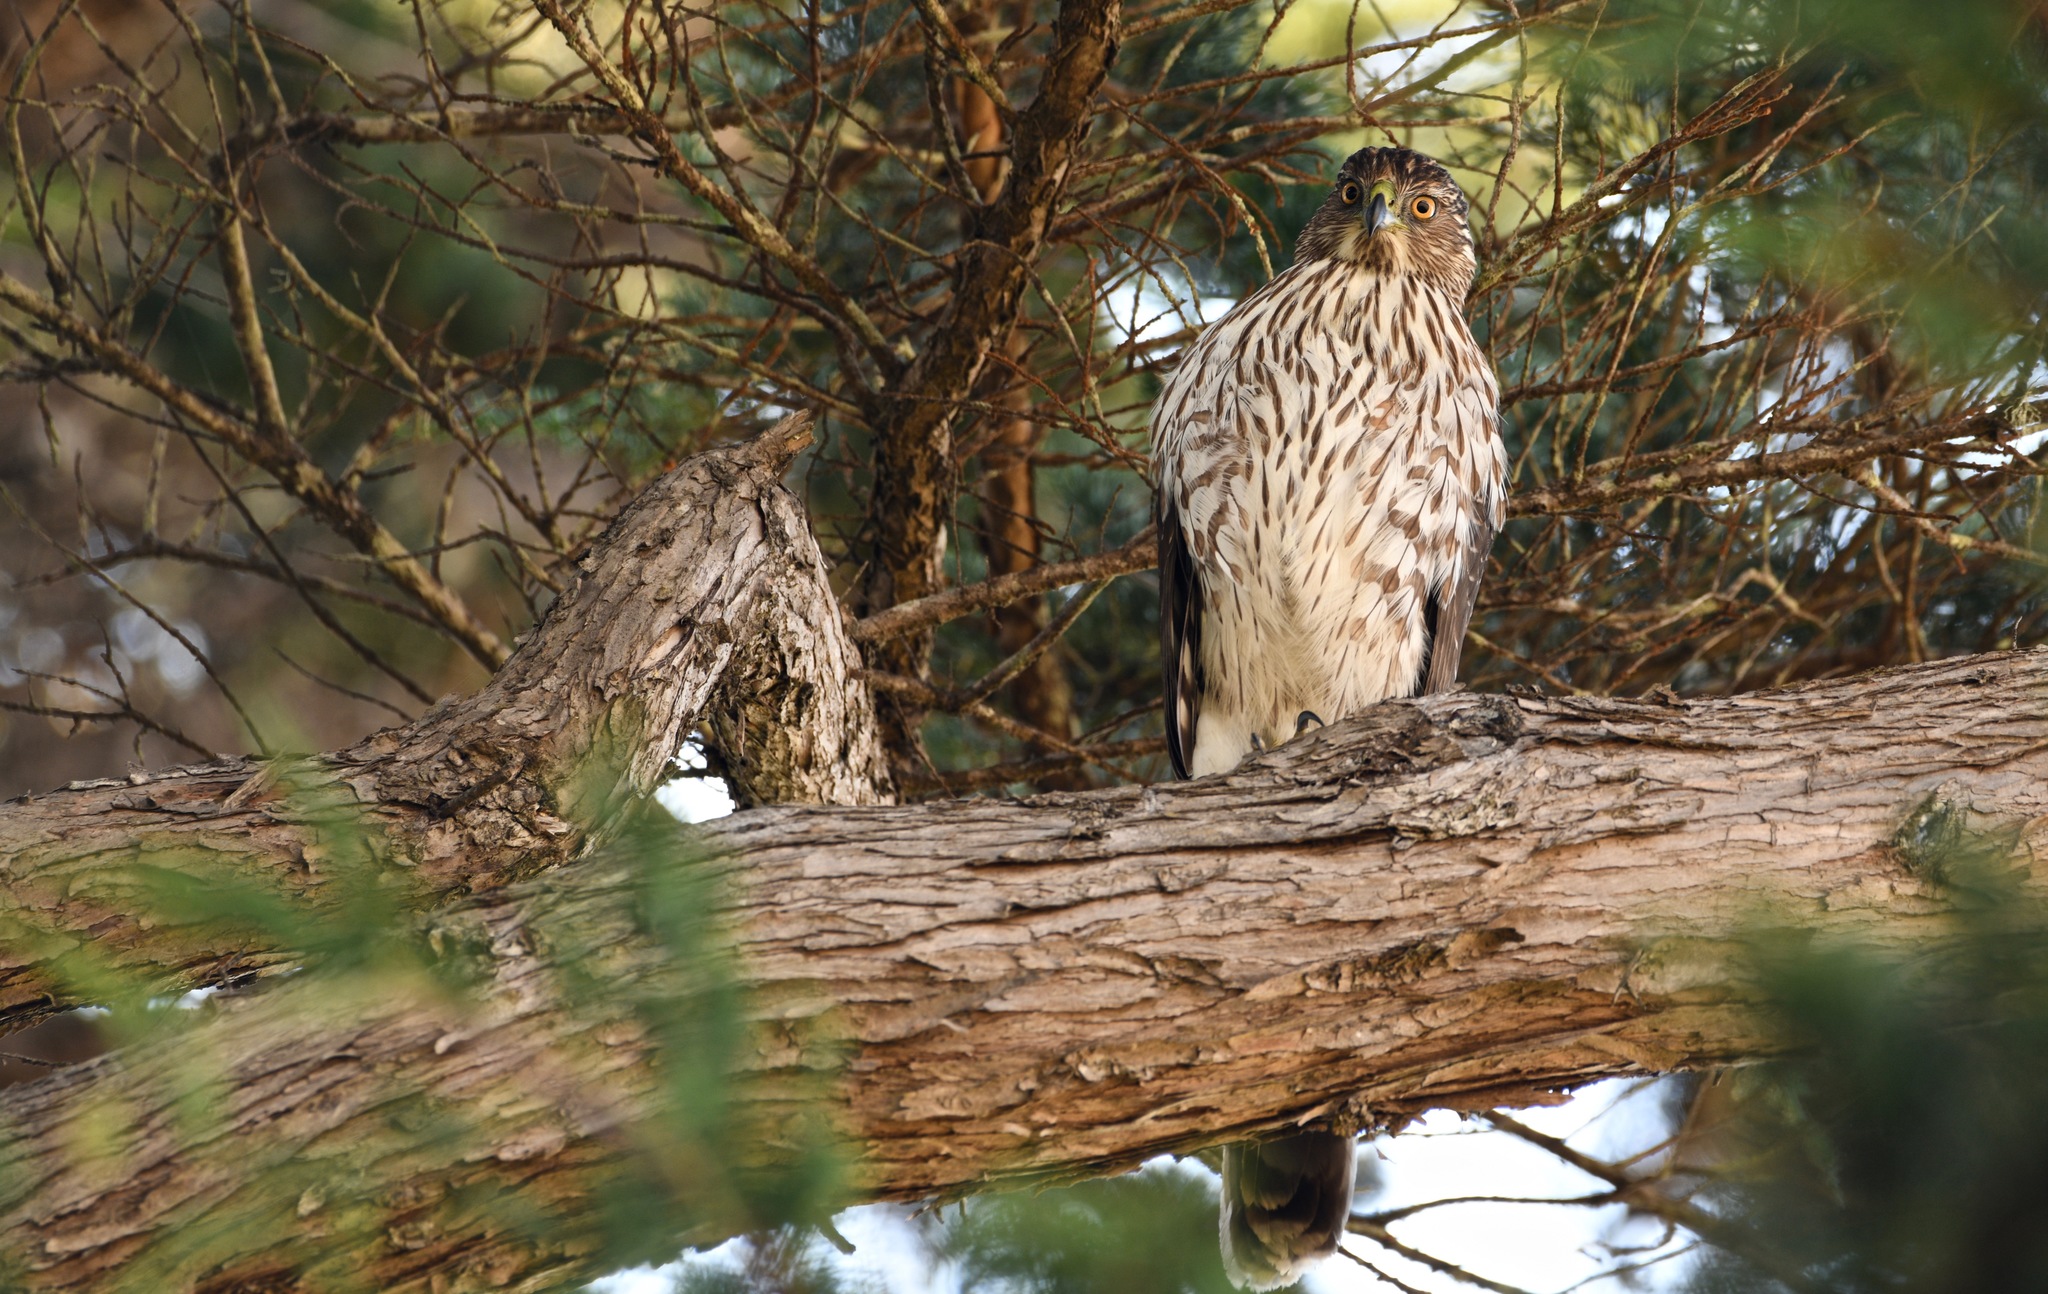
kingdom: Animalia
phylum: Chordata
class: Aves
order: Accipitriformes
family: Accipitridae
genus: Accipiter
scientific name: Accipiter cooperii
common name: Cooper's hawk
